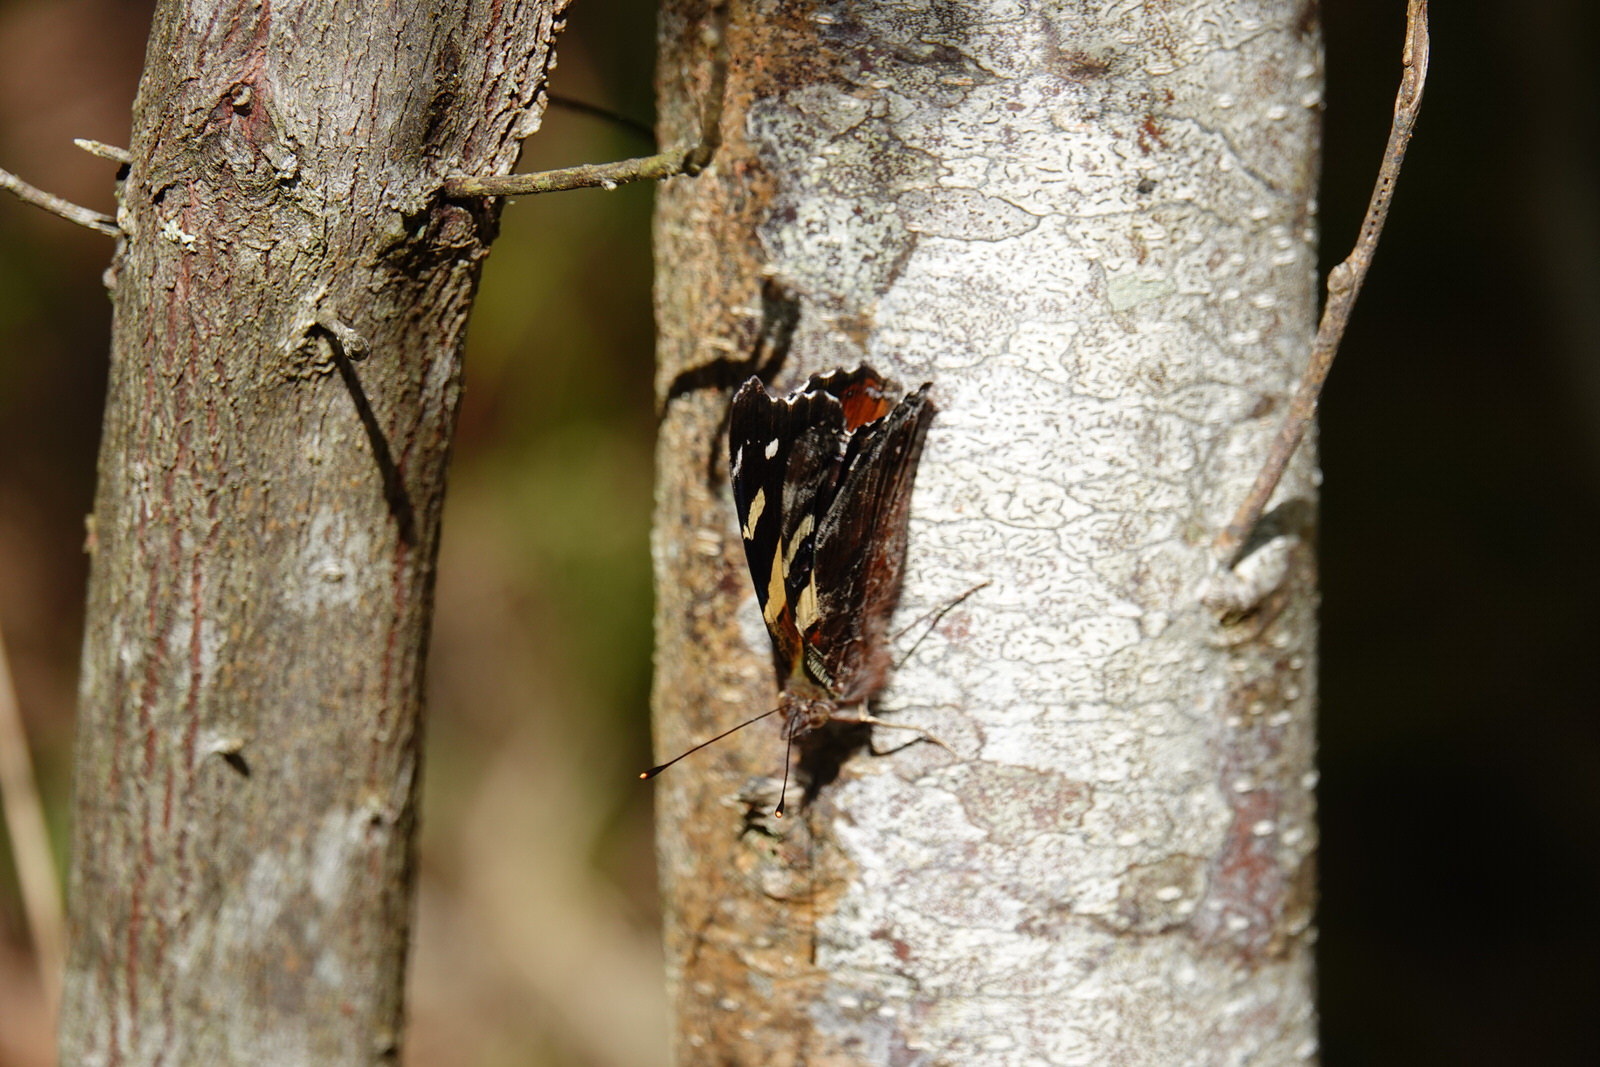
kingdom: Animalia
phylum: Arthropoda
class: Insecta
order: Lepidoptera
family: Nymphalidae
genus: Vanessa
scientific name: Vanessa itea
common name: Yellow admiral
